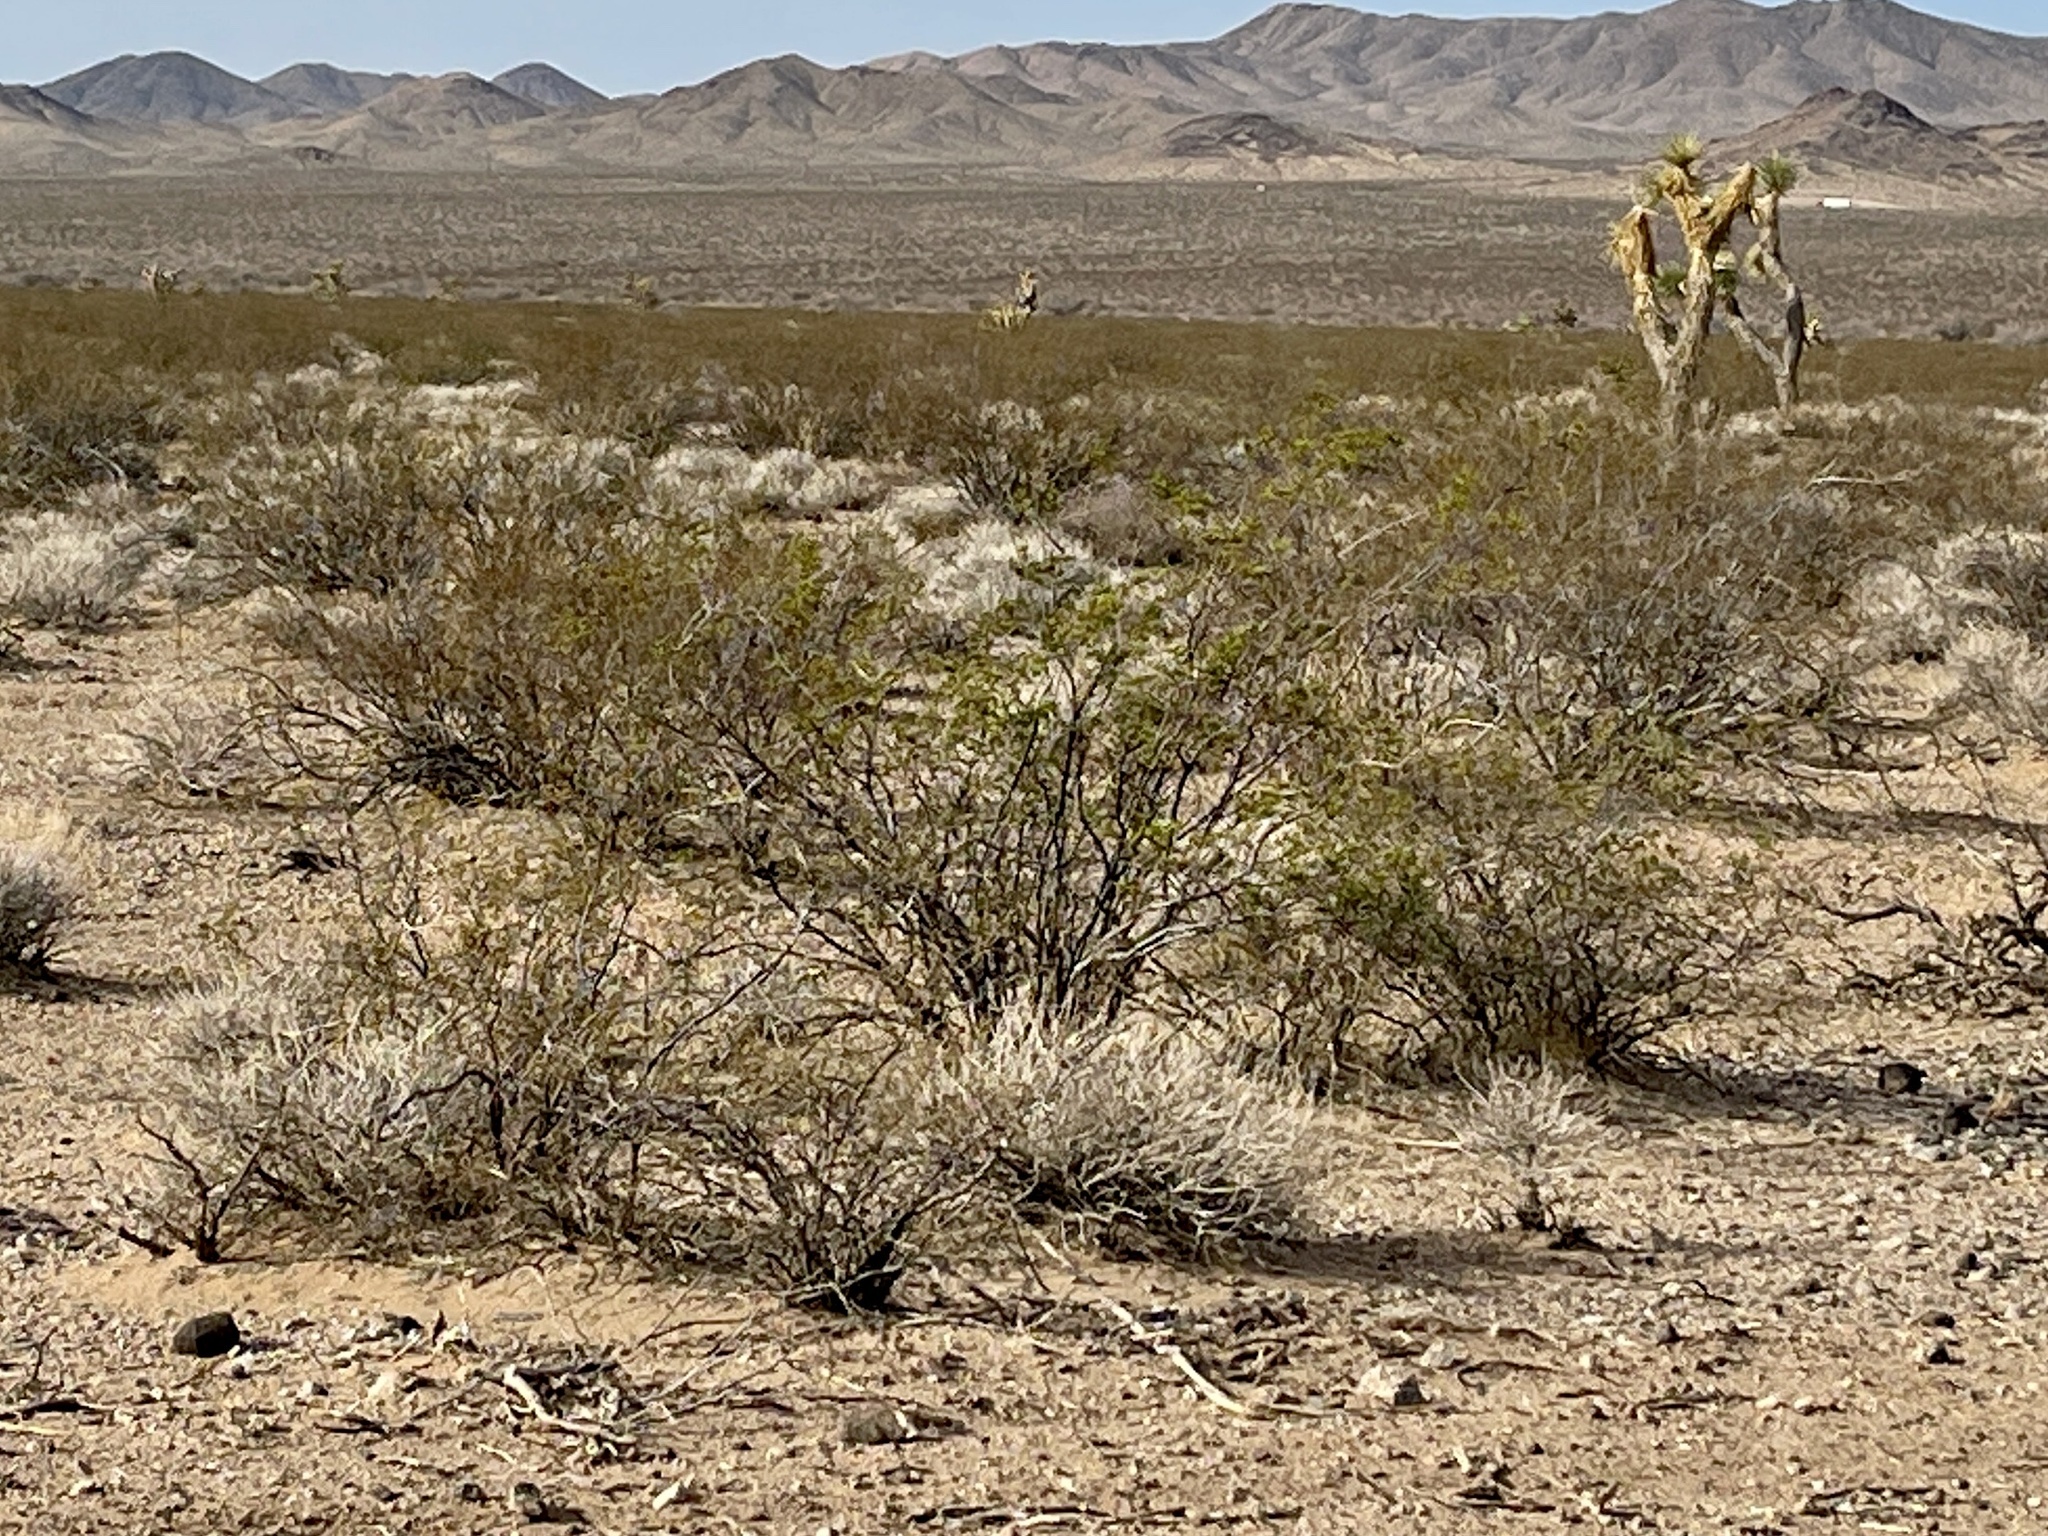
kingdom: Plantae
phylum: Tracheophyta
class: Magnoliopsida
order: Zygophyllales
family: Zygophyllaceae
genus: Larrea
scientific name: Larrea tridentata
